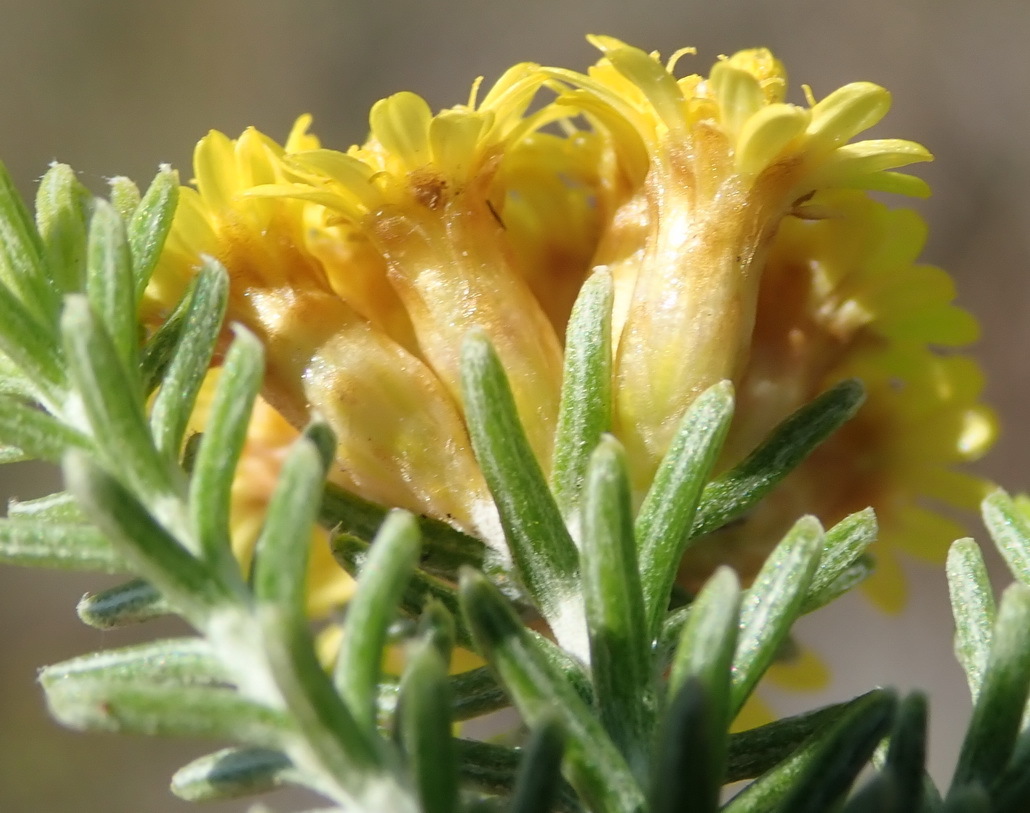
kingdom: Plantae
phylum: Tracheophyta
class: Magnoliopsida
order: Asterales
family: Asteraceae
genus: Oedera
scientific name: Oedera genistifolia
